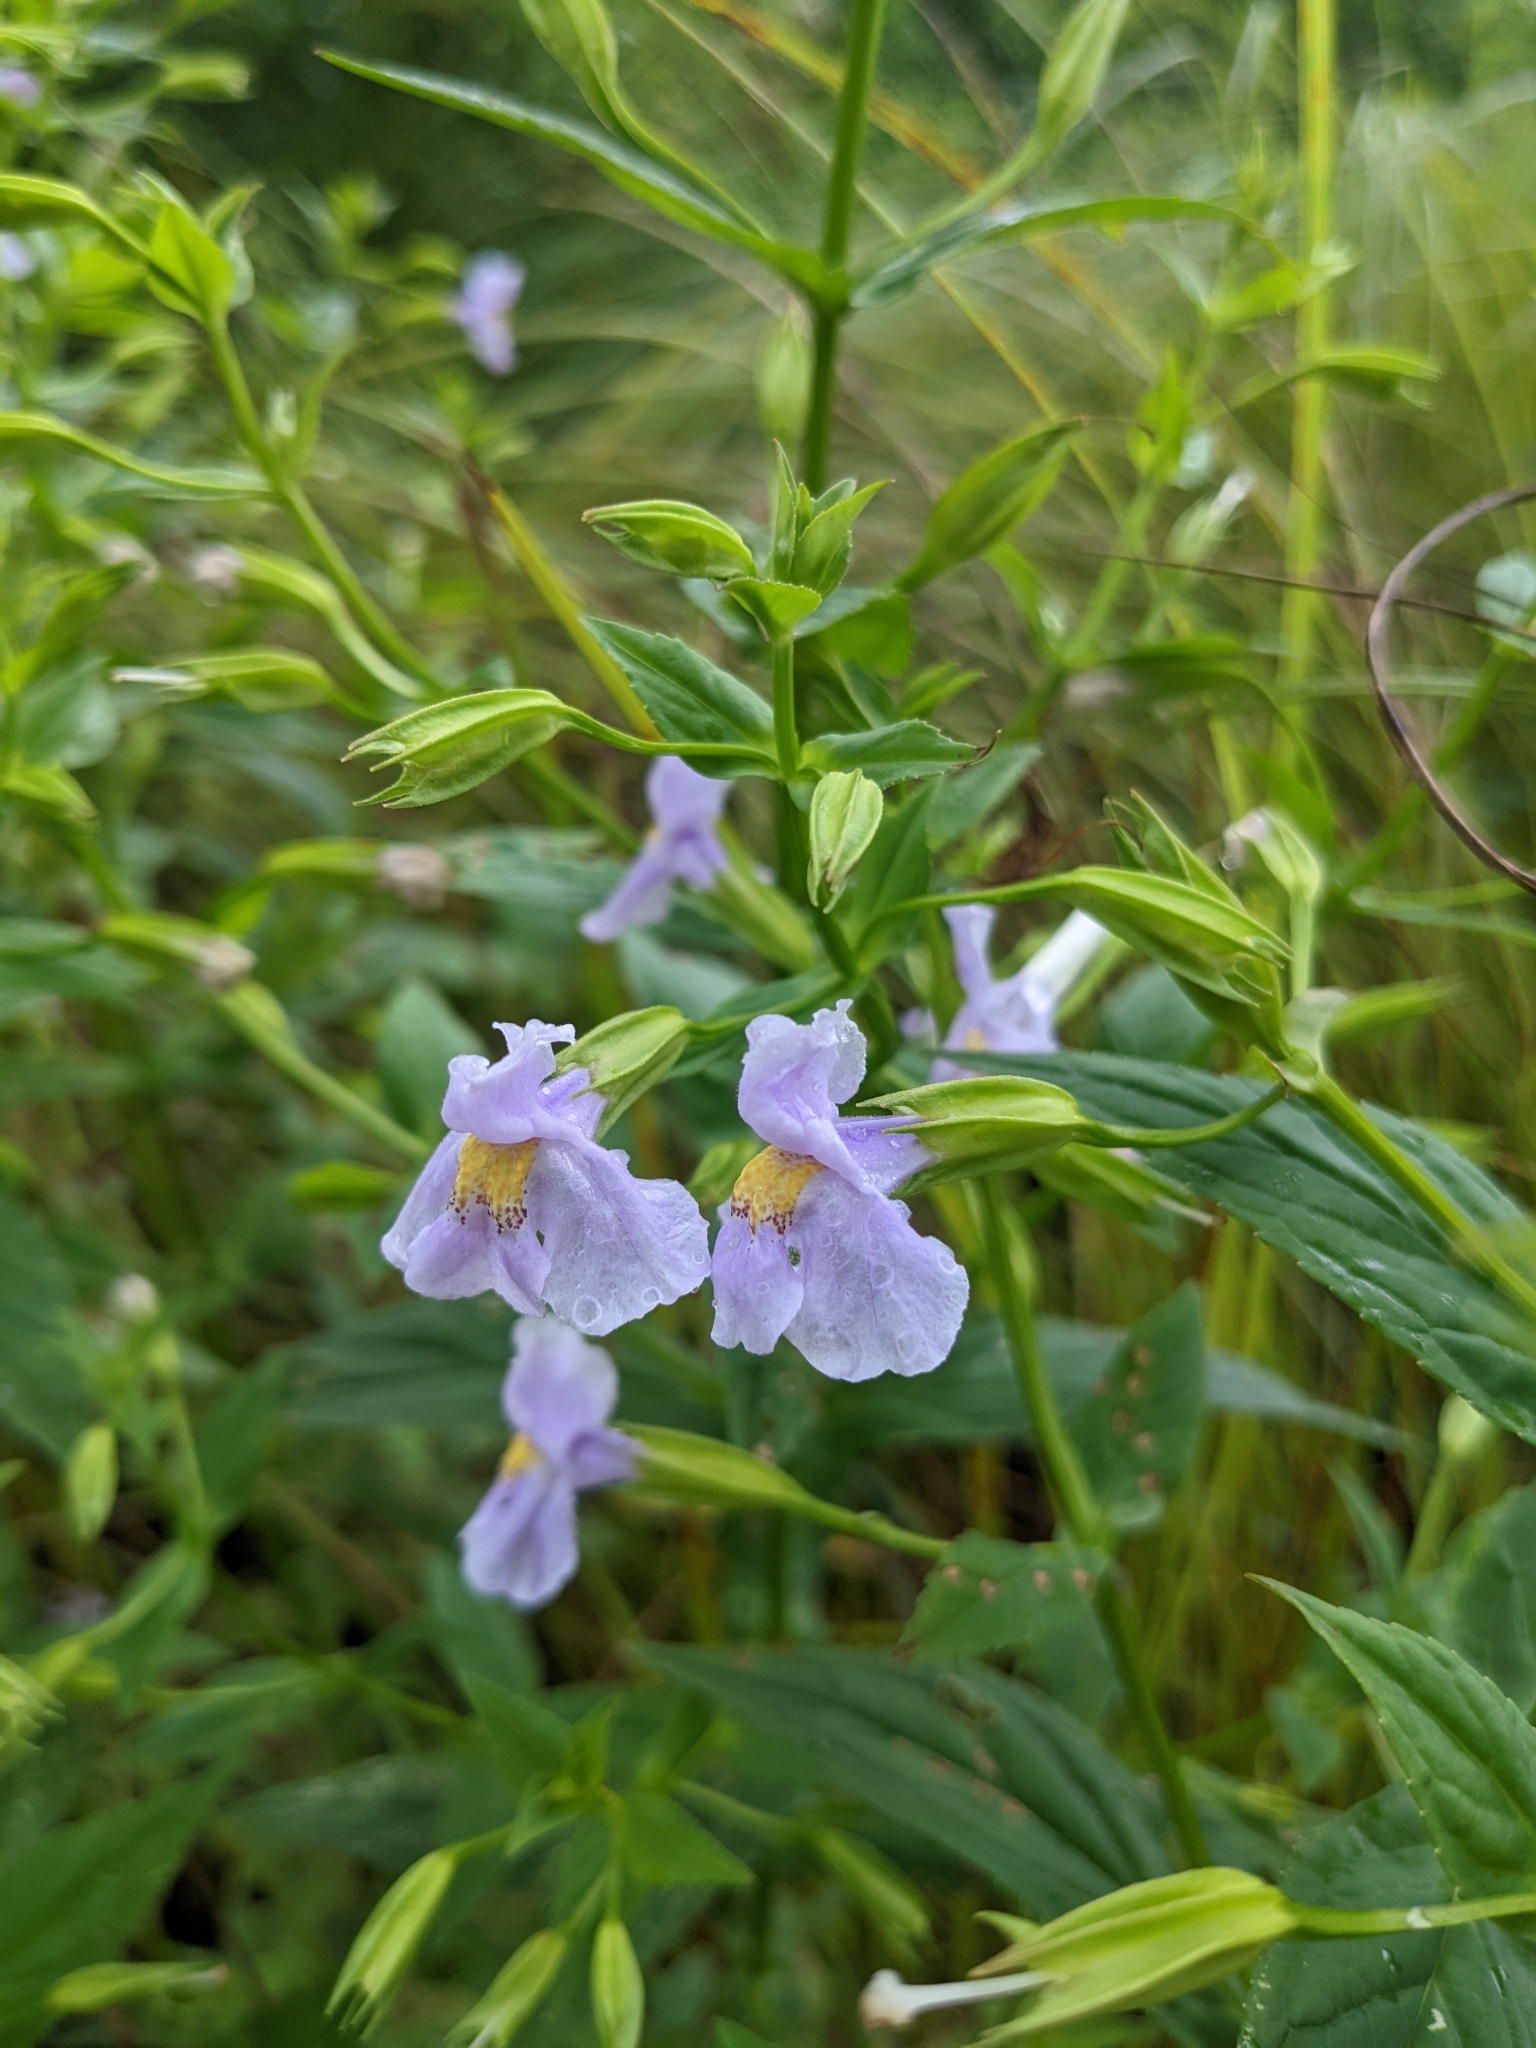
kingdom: Plantae
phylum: Tracheophyta
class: Magnoliopsida
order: Lamiales
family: Phrymaceae
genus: Mimulus
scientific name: Mimulus ringens
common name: Allegheny monkeyflower
